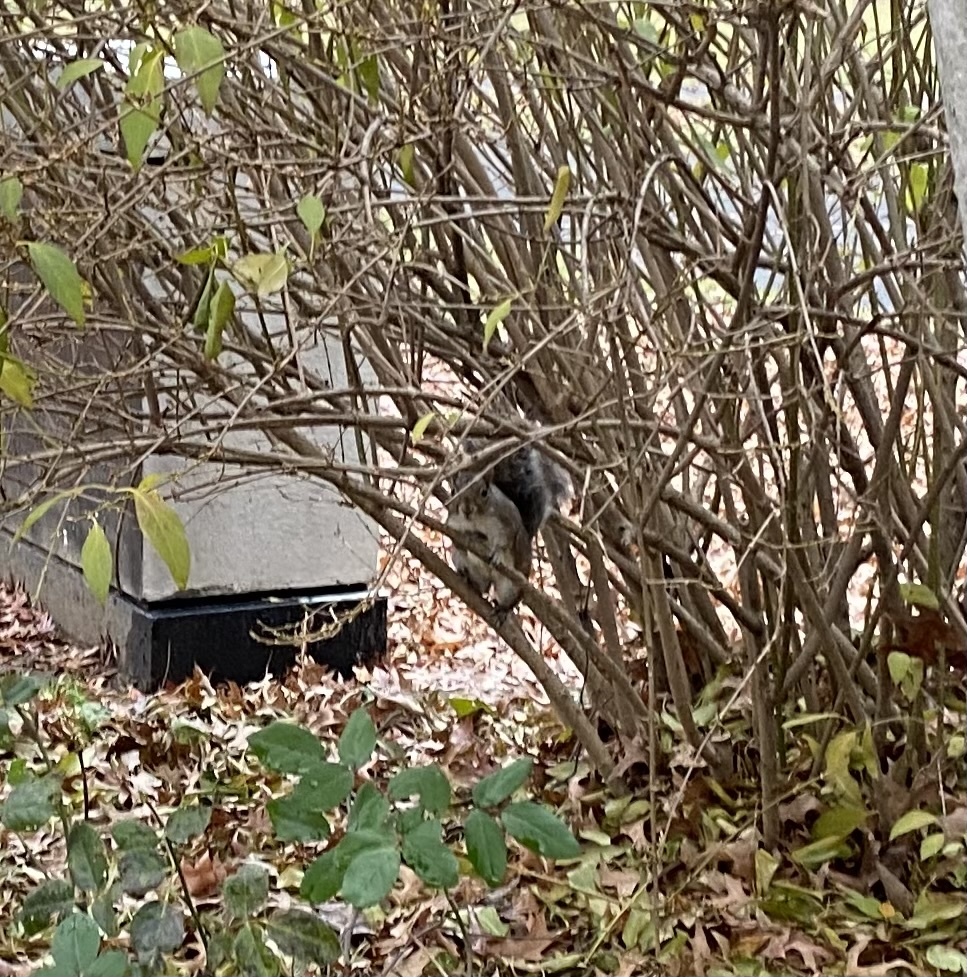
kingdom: Animalia
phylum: Chordata
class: Mammalia
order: Rodentia
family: Sciuridae
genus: Sciurus
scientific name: Sciurus carolinensis
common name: Eastern gray squirrel
